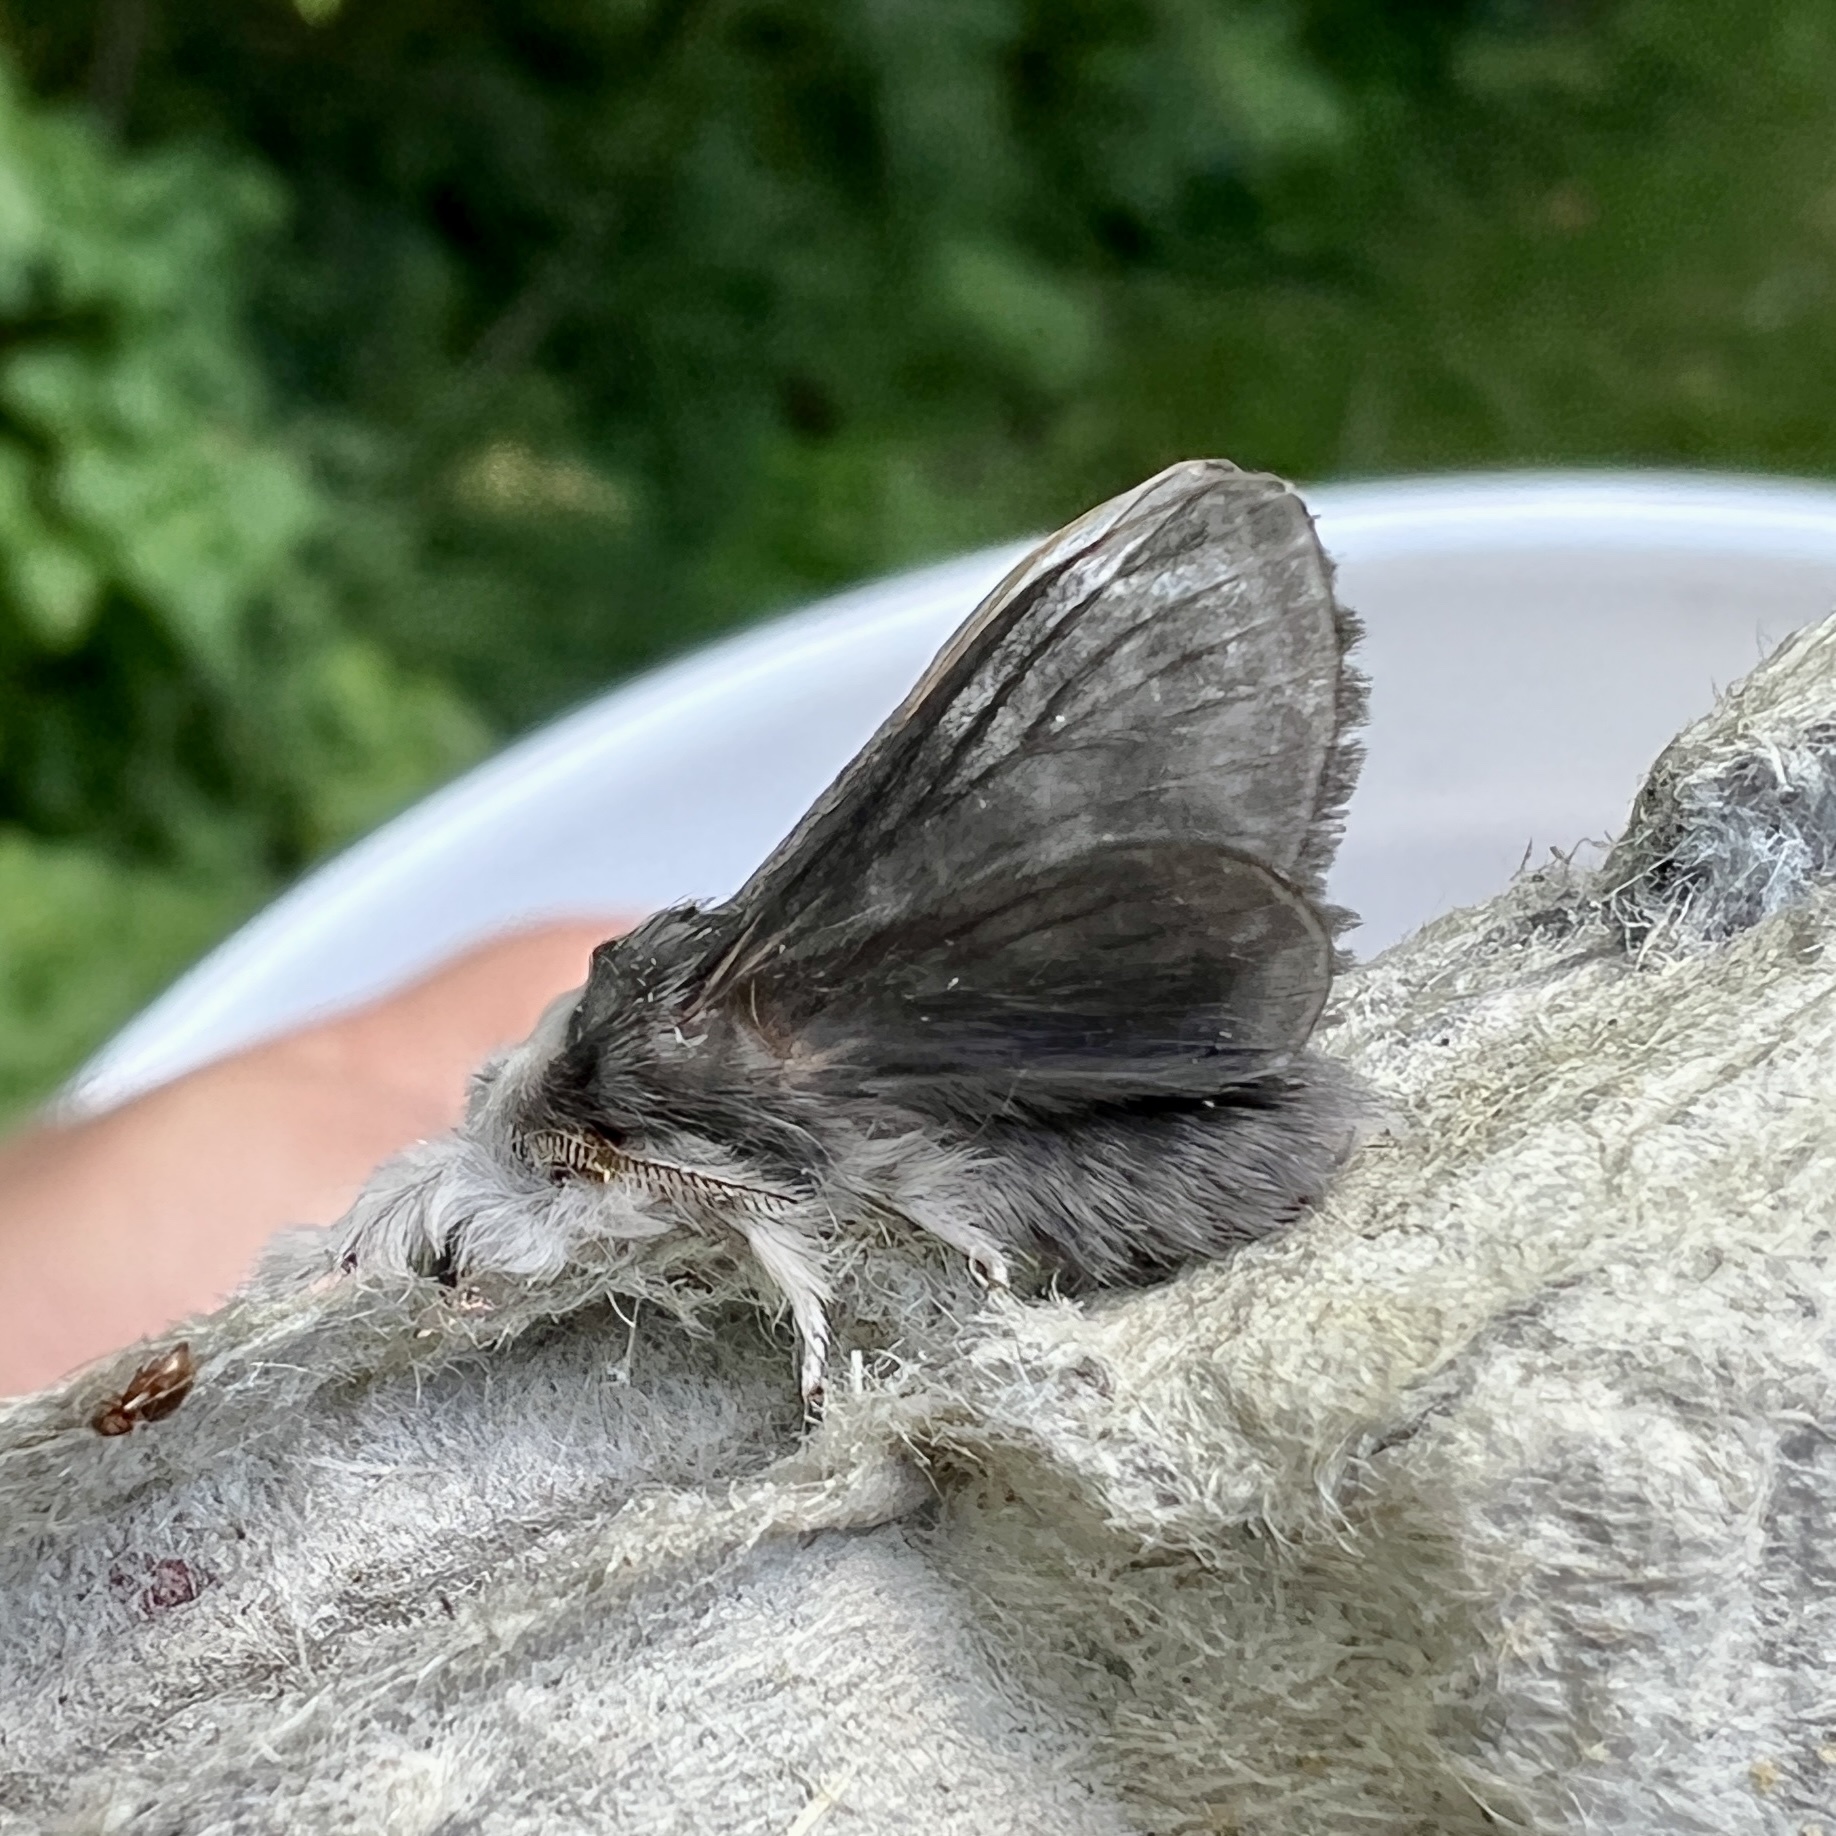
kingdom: Animalia
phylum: Arthropoda
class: Insecta
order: Lepidoptera
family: Lasiocampidae
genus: Tolype
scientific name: Tolype laricis
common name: Larch tolype moth
